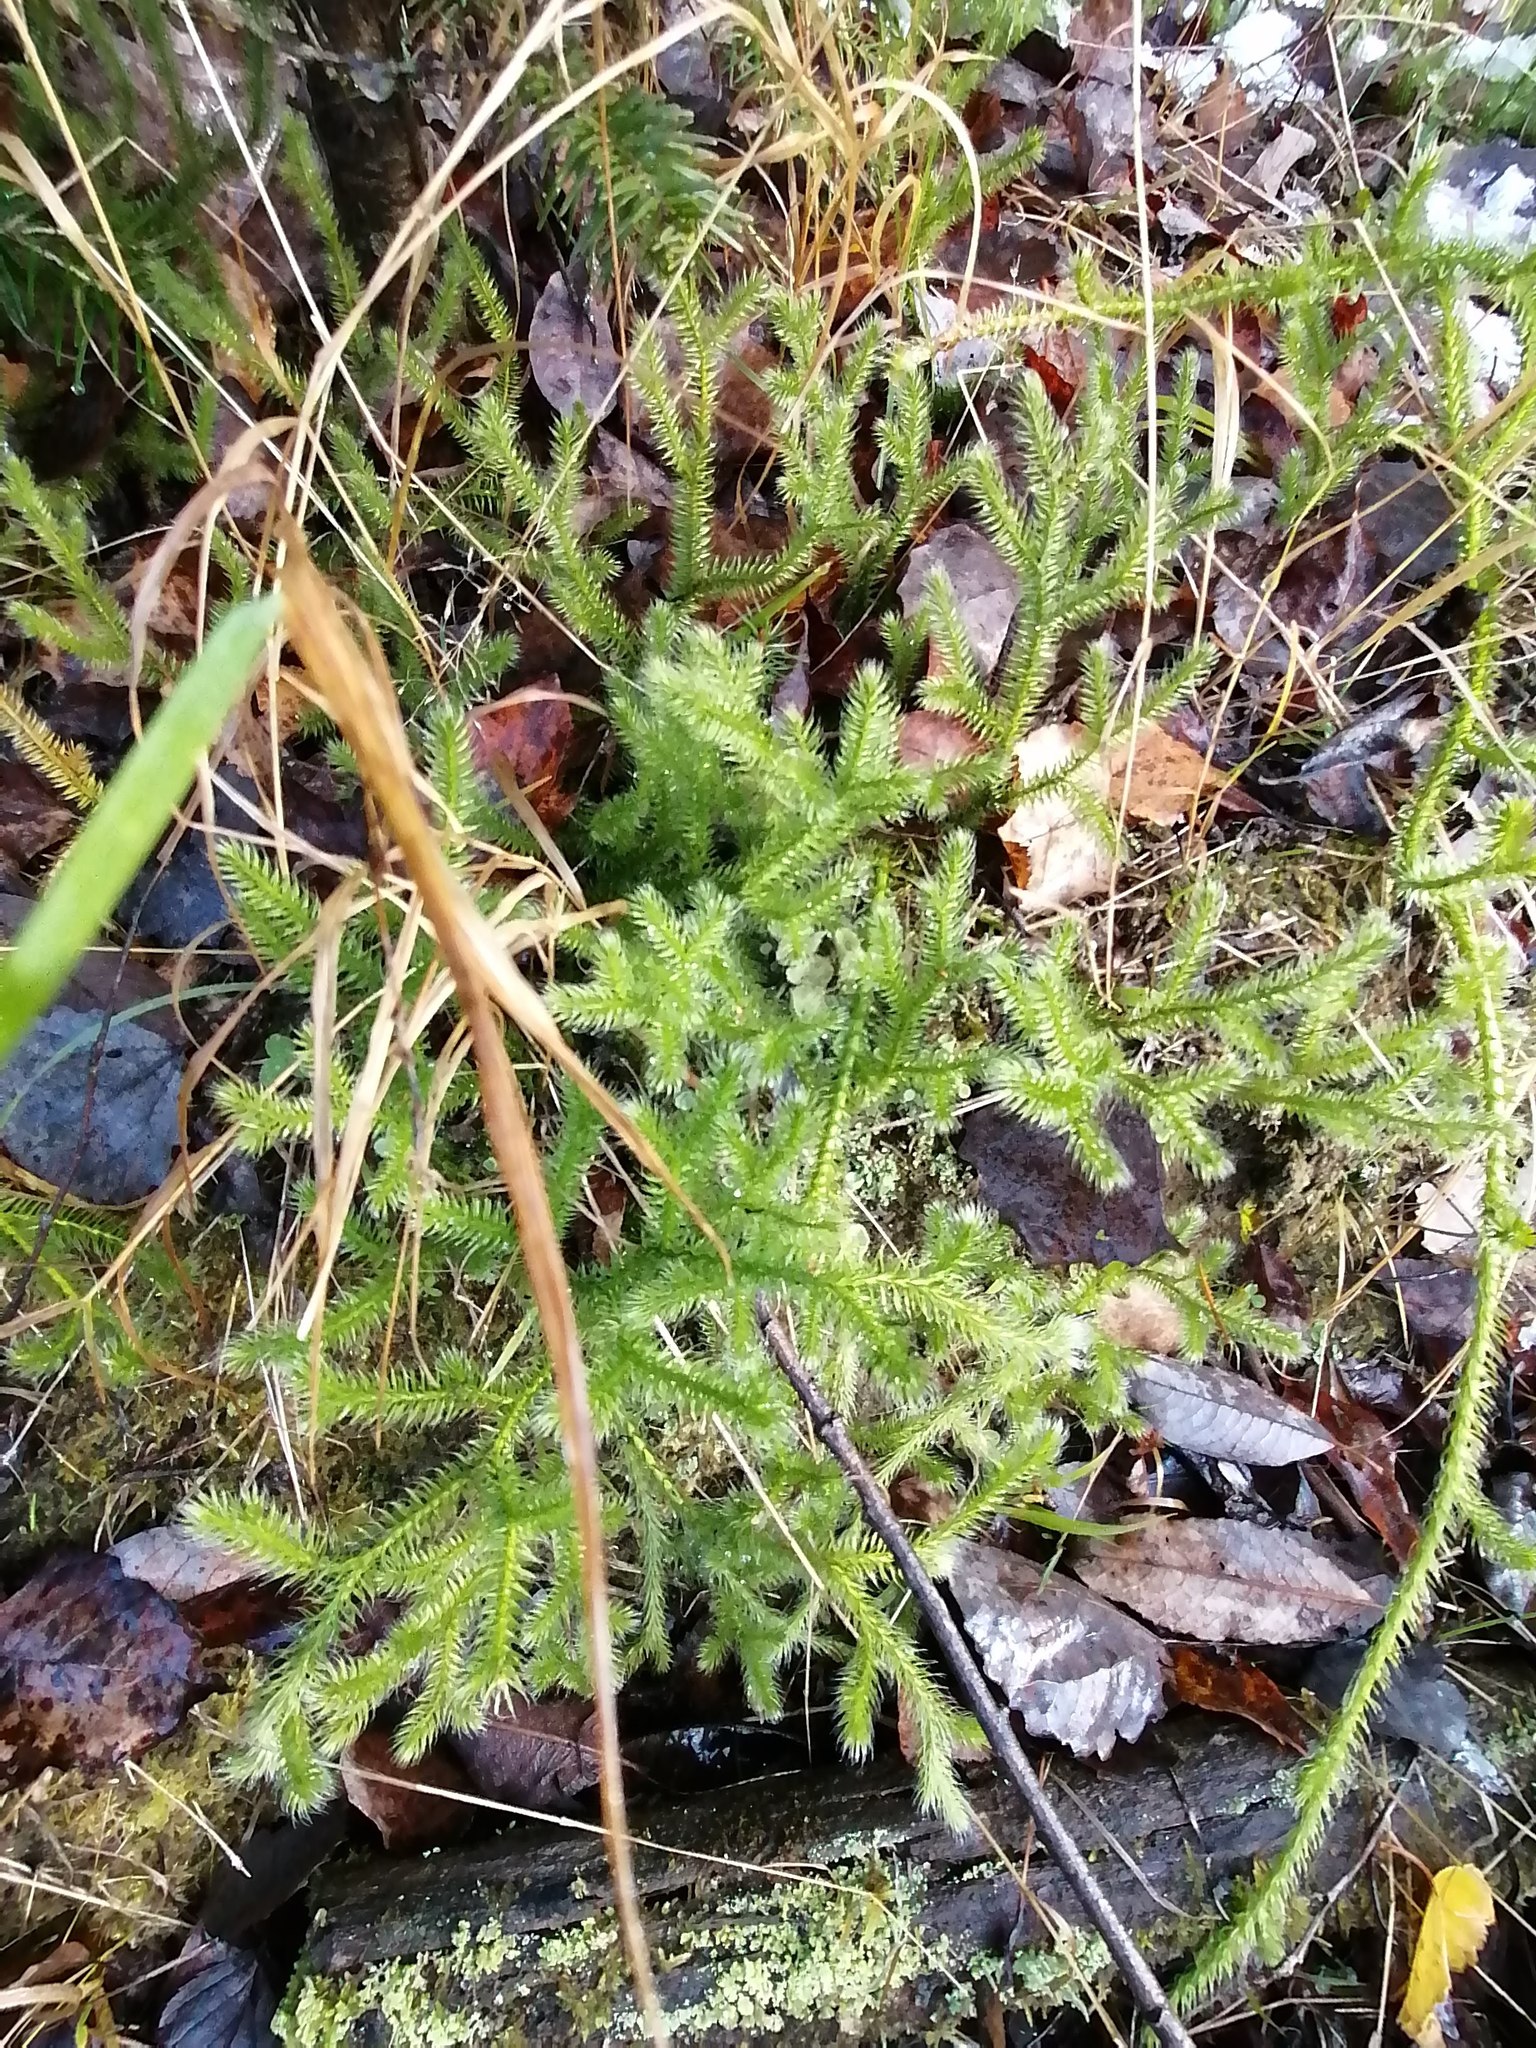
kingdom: Plantae
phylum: Tracheophyta
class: Lycopodiopsida
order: Lycopodiales
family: Lycopodiaceae
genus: Lycopodium
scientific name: Lycopodium clavatum
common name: Stag's-horn clubmoss
